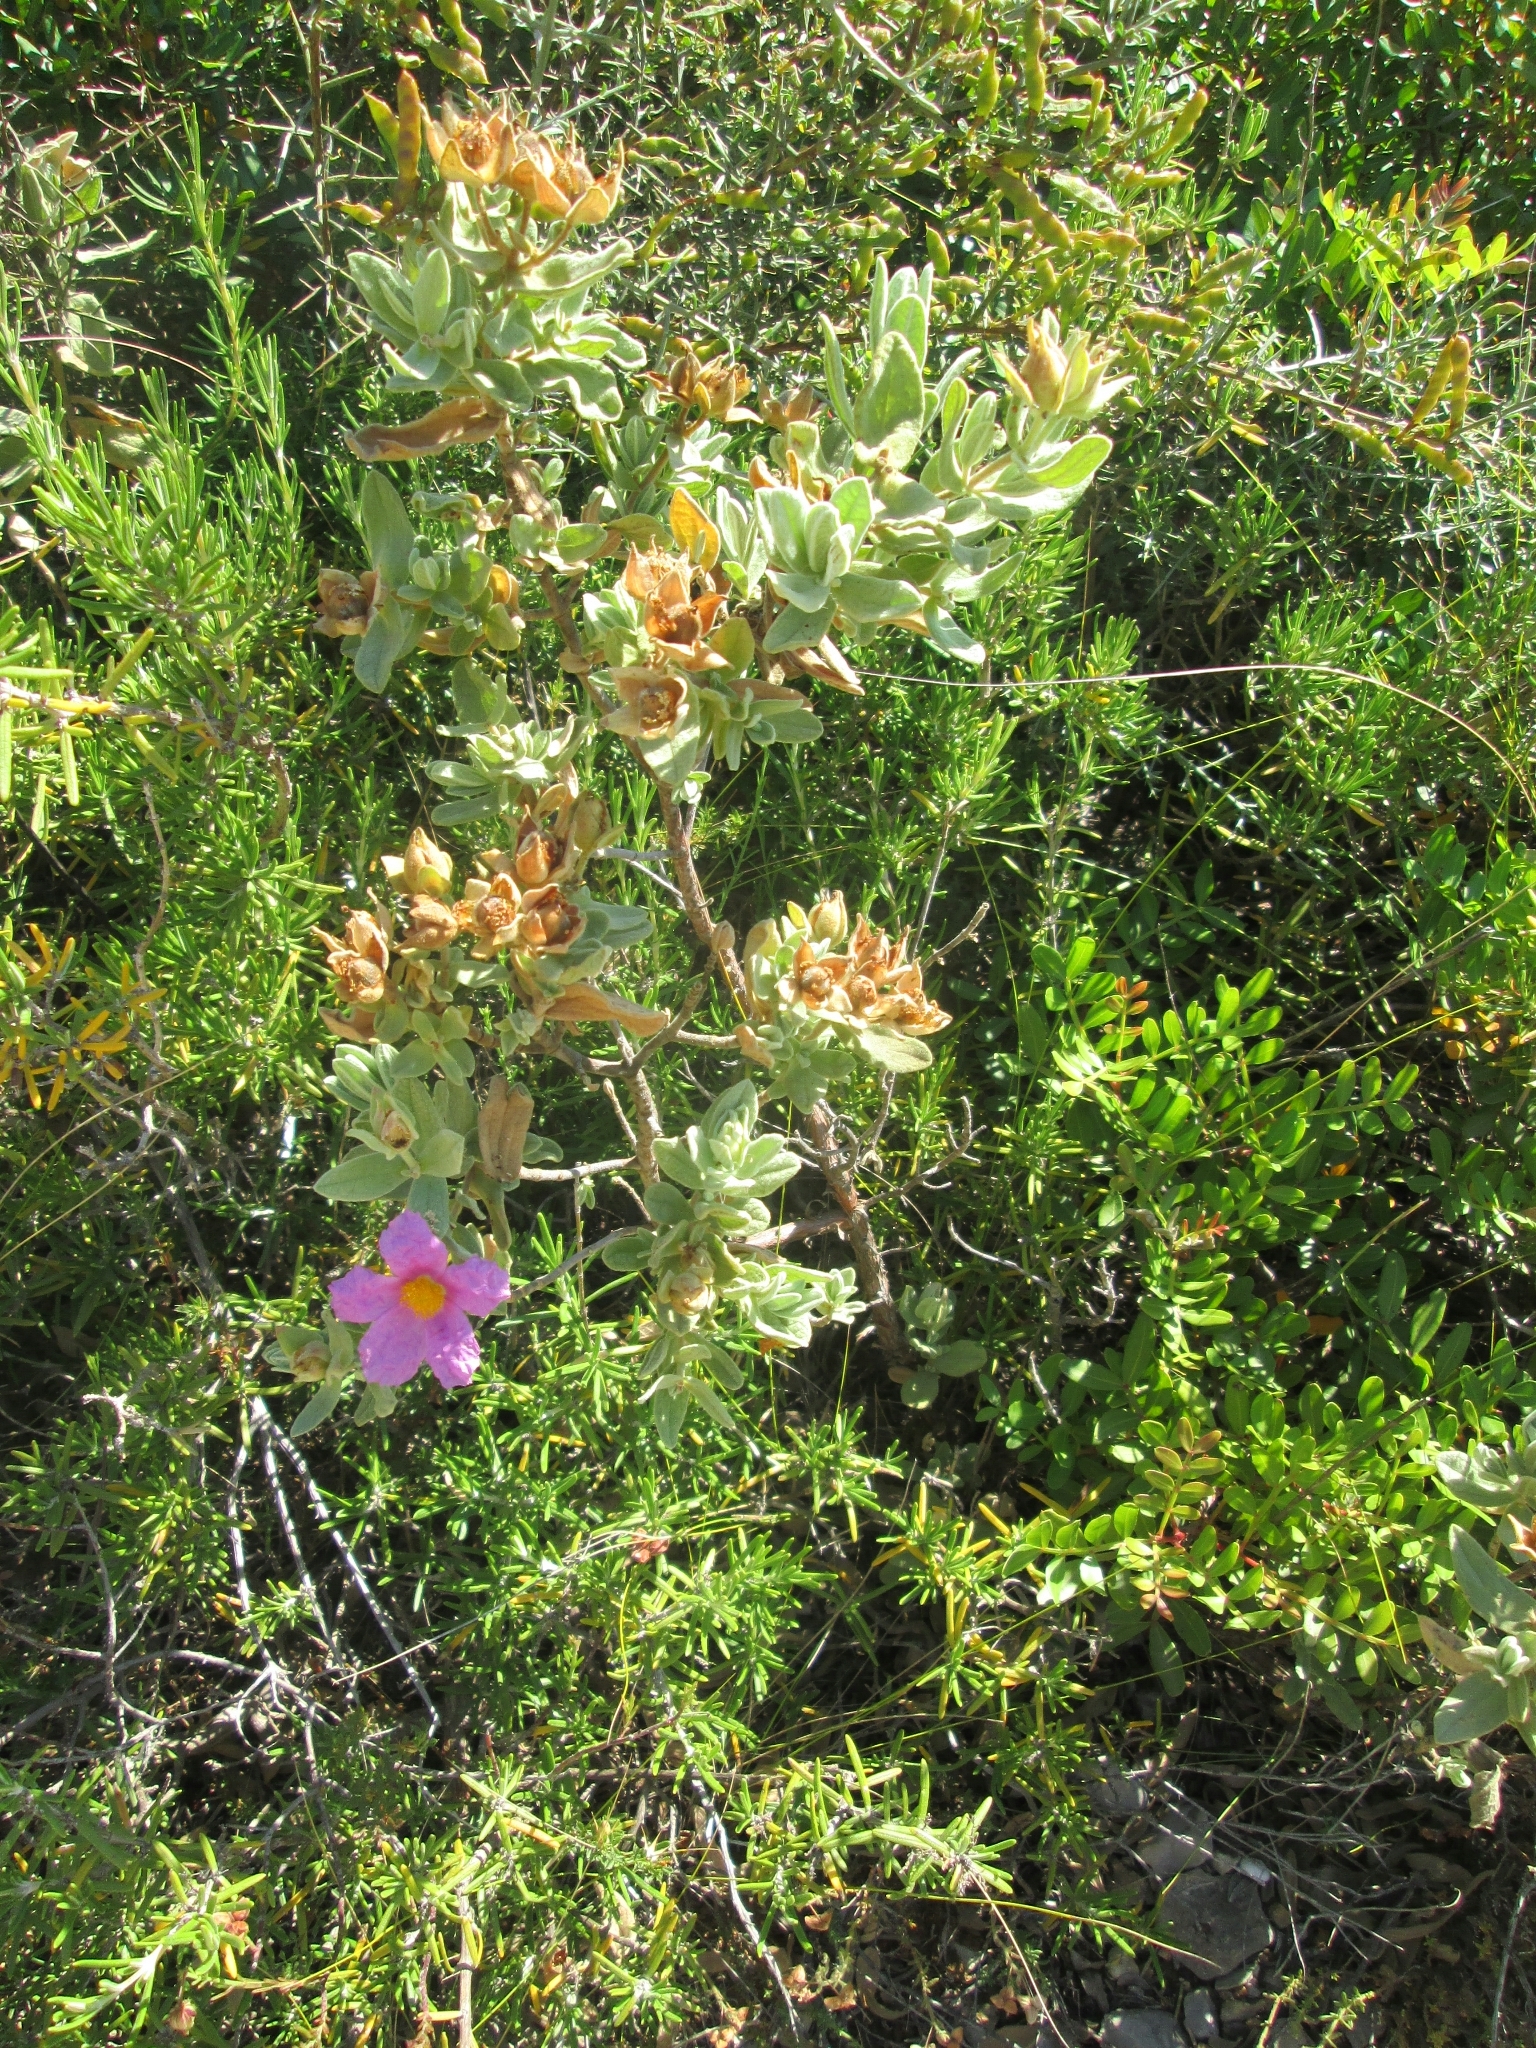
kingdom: Plantae
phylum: Tracheophyta
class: Magnoliopsida
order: Malvales
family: Cistaceae
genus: Cistus
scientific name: Cistus albidus
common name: White-leaf rock-rose
